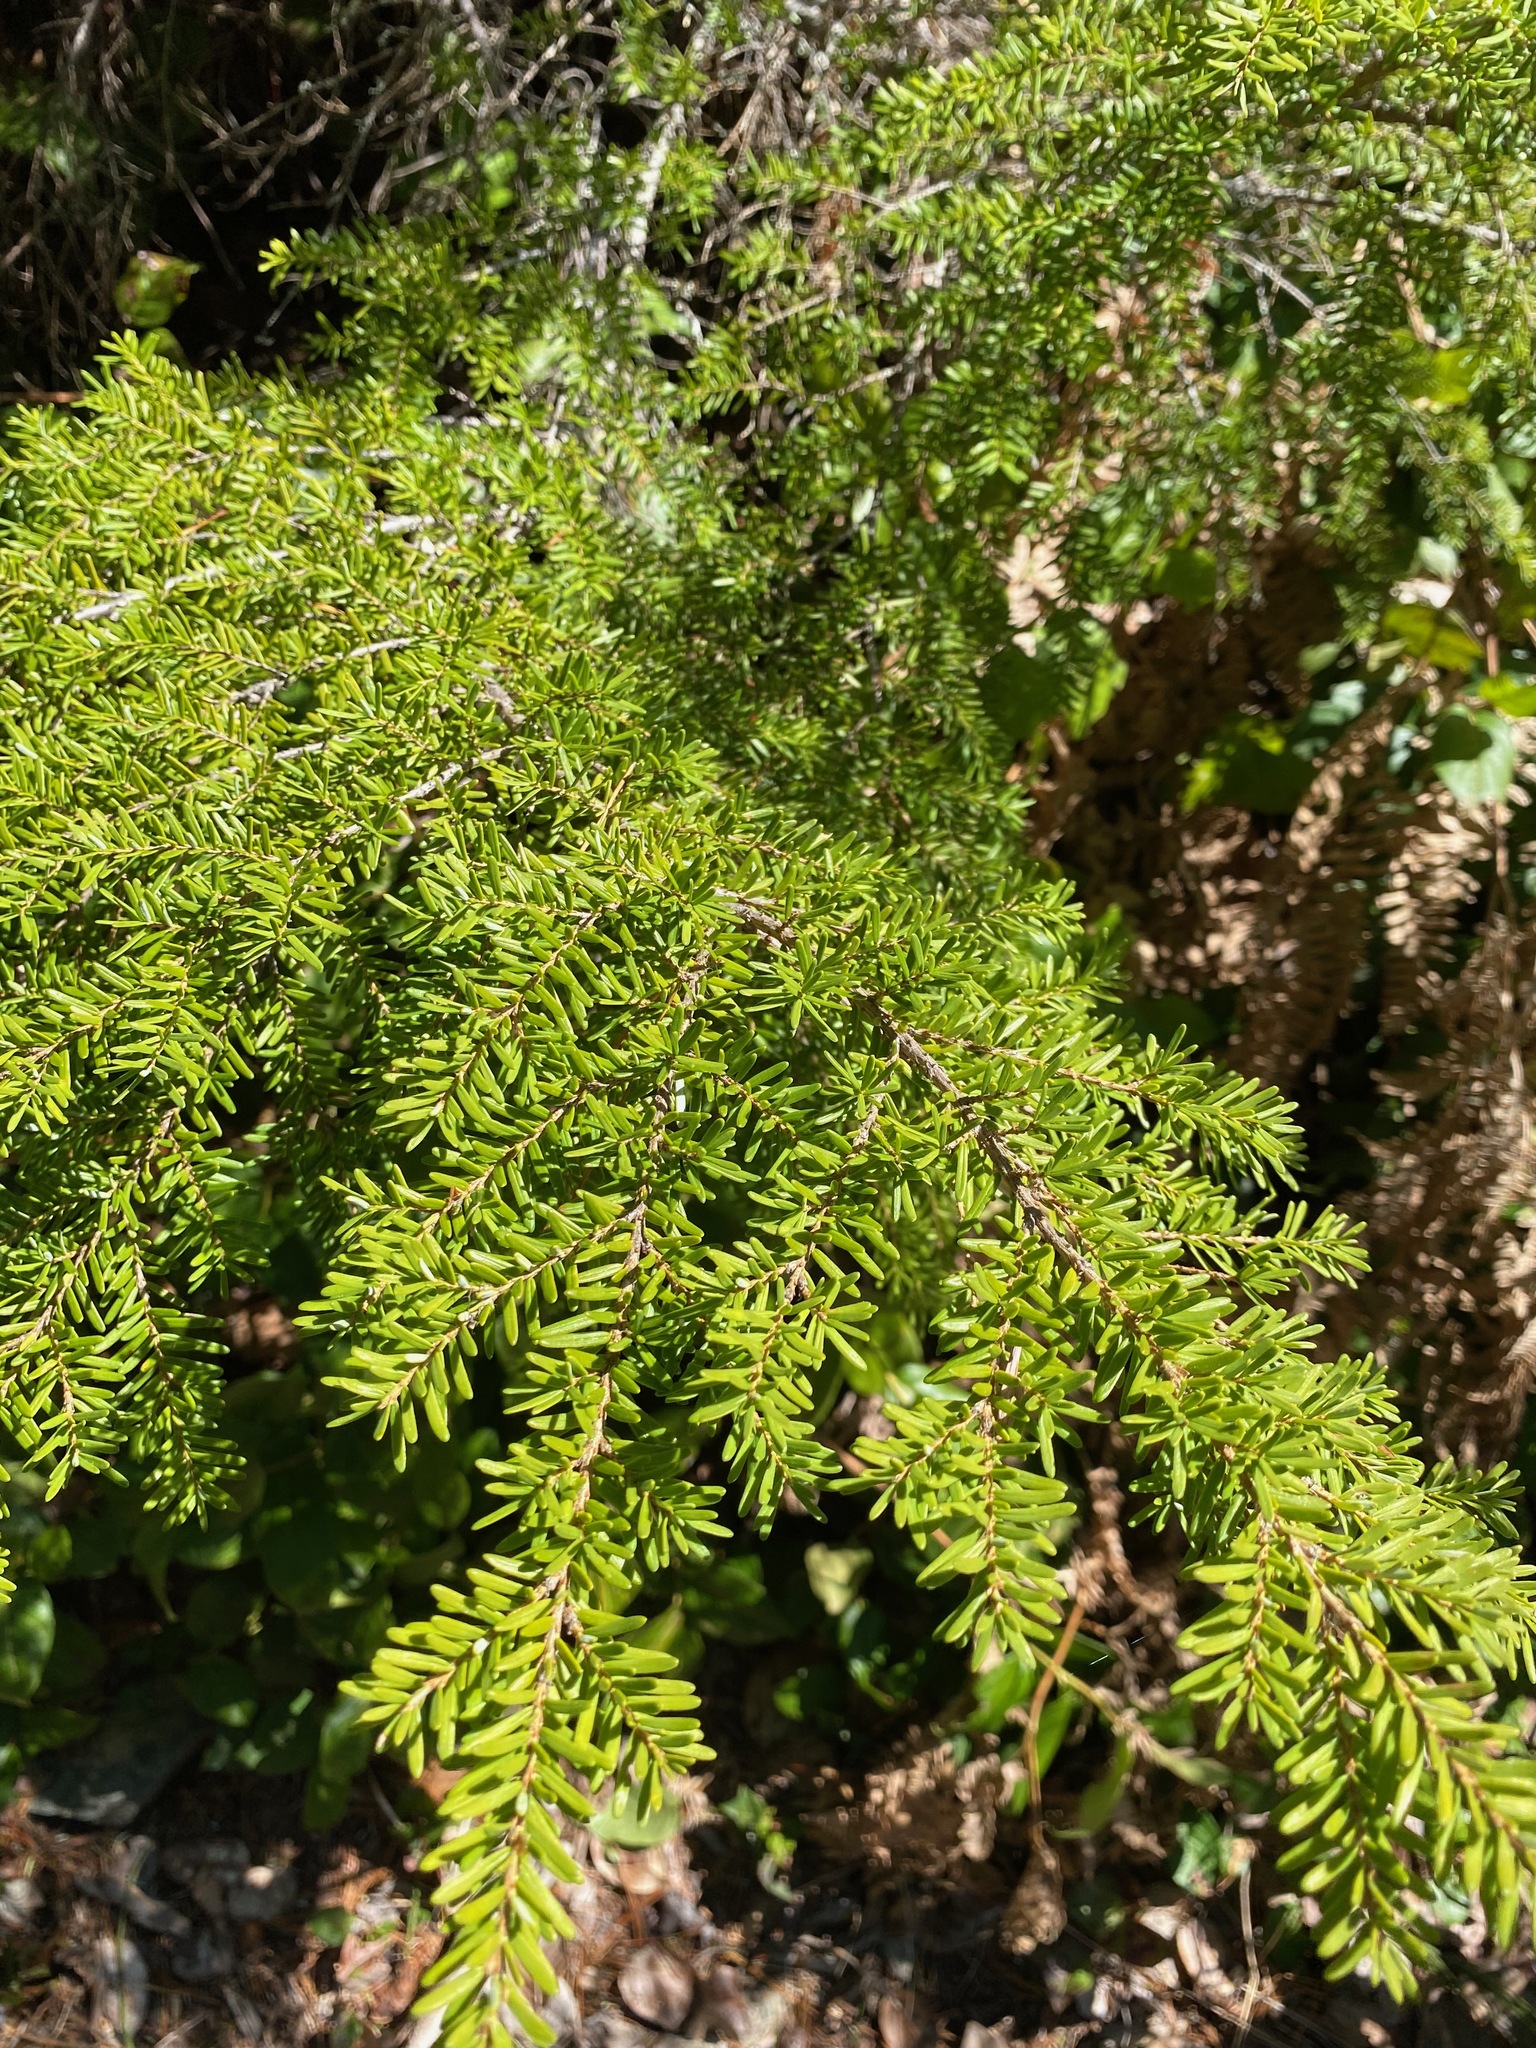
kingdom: Plantae
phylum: Tracheophyta
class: Pinopsida
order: Pinales
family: Pinaceae
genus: Tsuga
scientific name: Tsuga heterophylla
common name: Western hemlock
